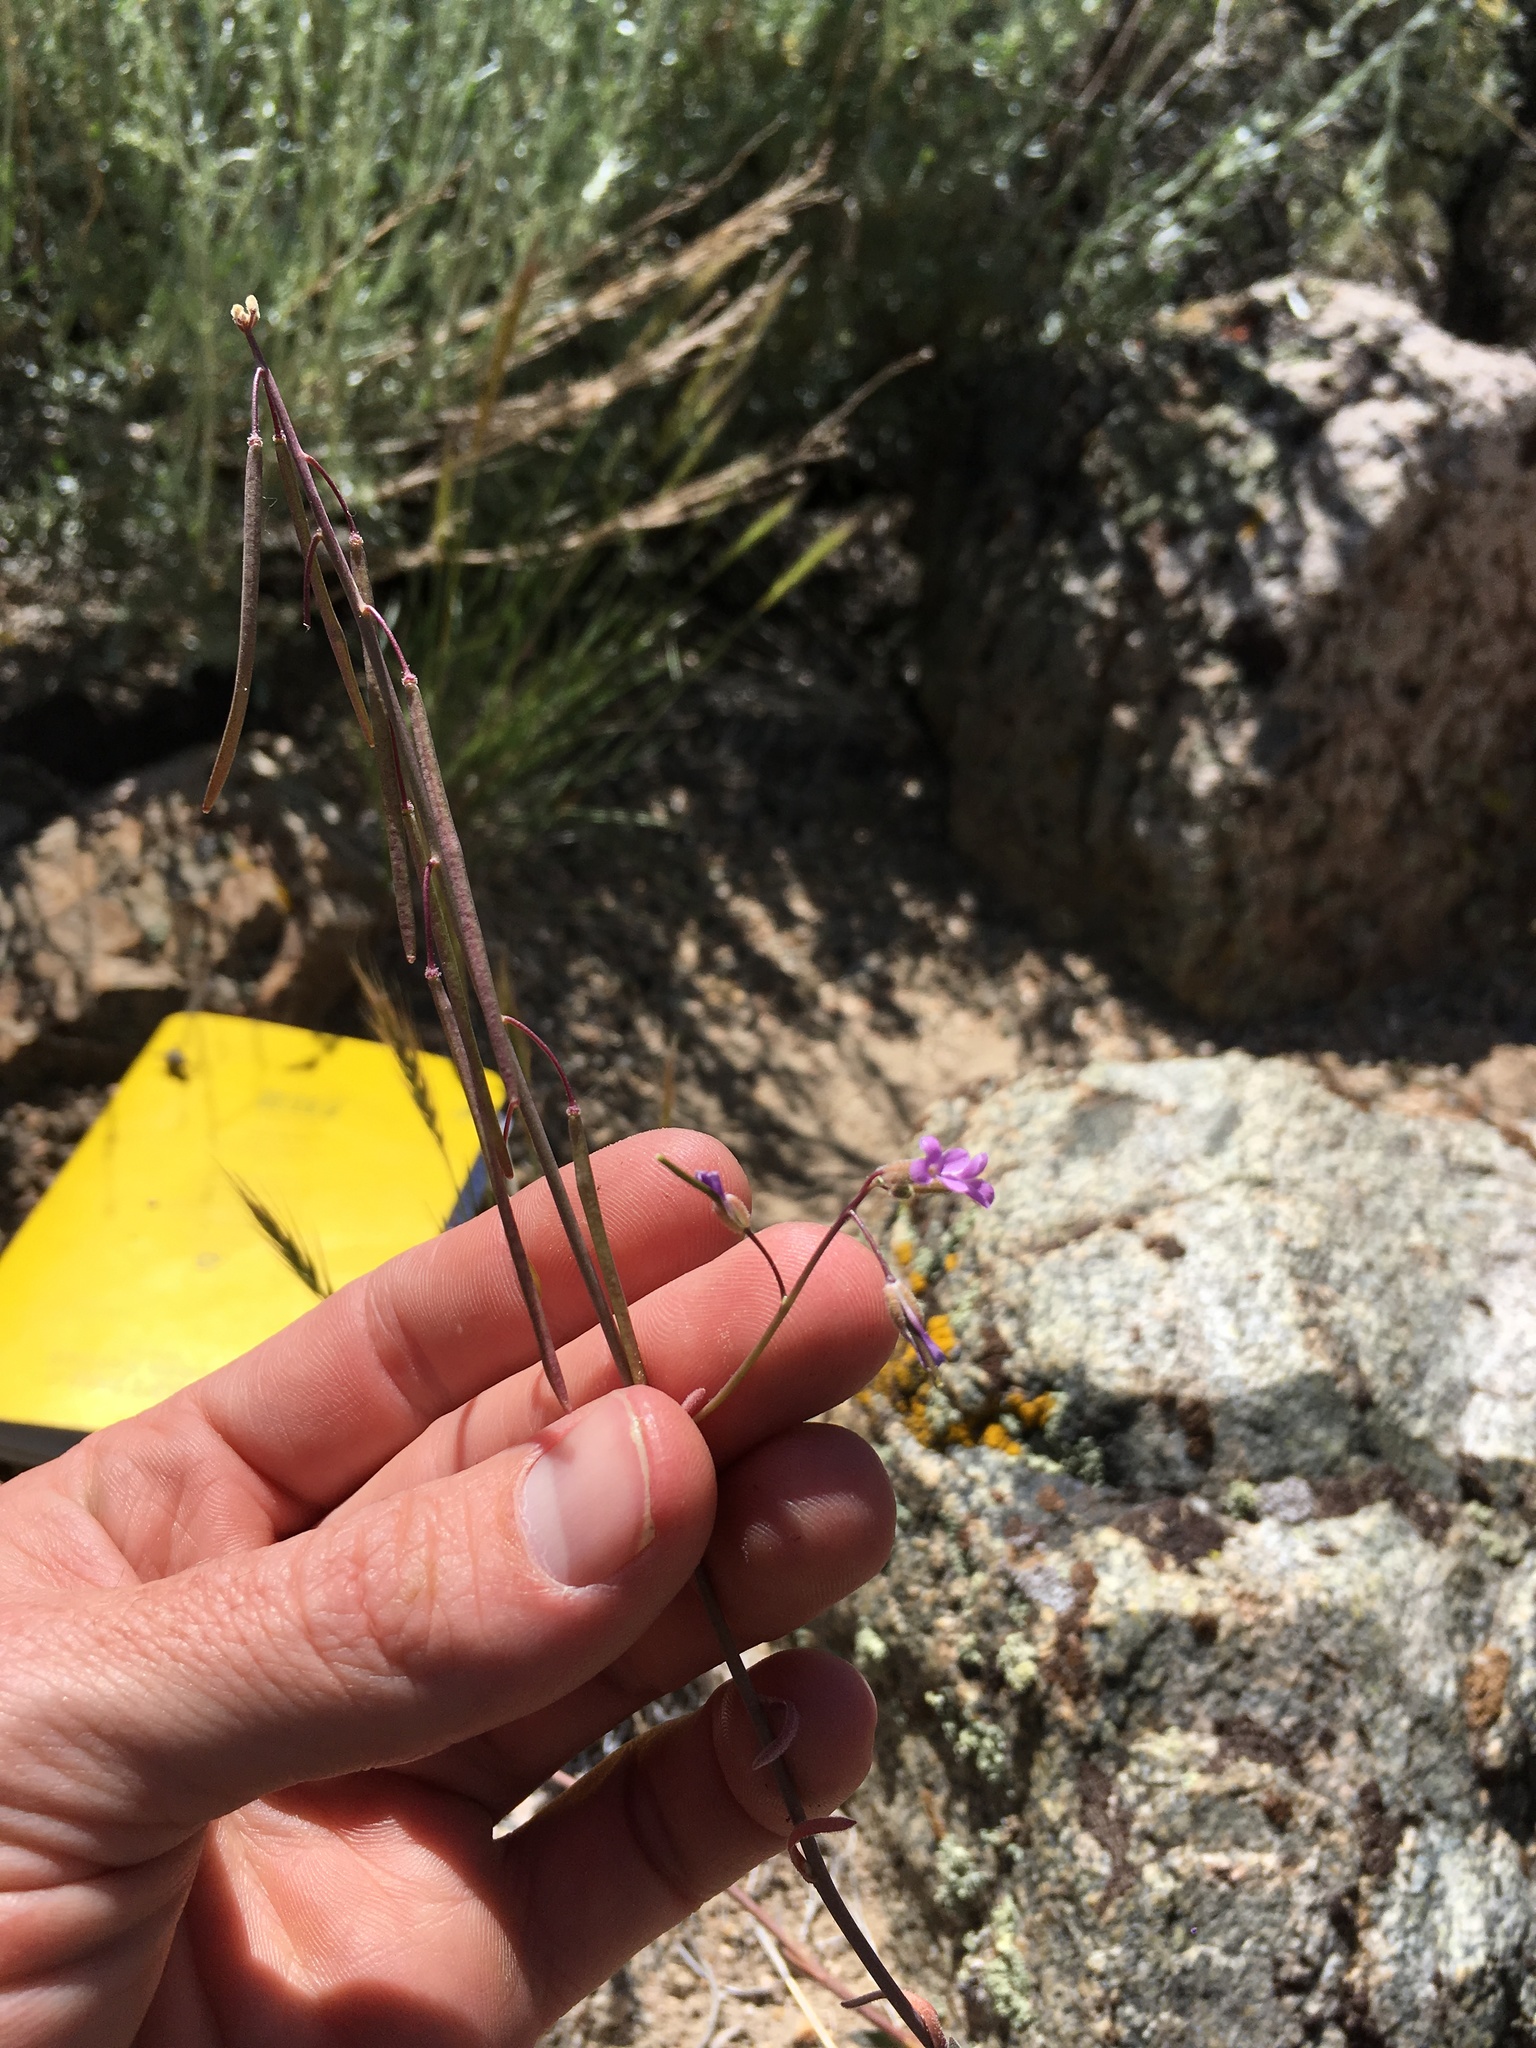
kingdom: Plantae
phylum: Tracheophyta
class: Magnoliopsida
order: Brassicales
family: Brassicaceae
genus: Boechera
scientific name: Boechera retrofracta
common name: Dangling suncress
